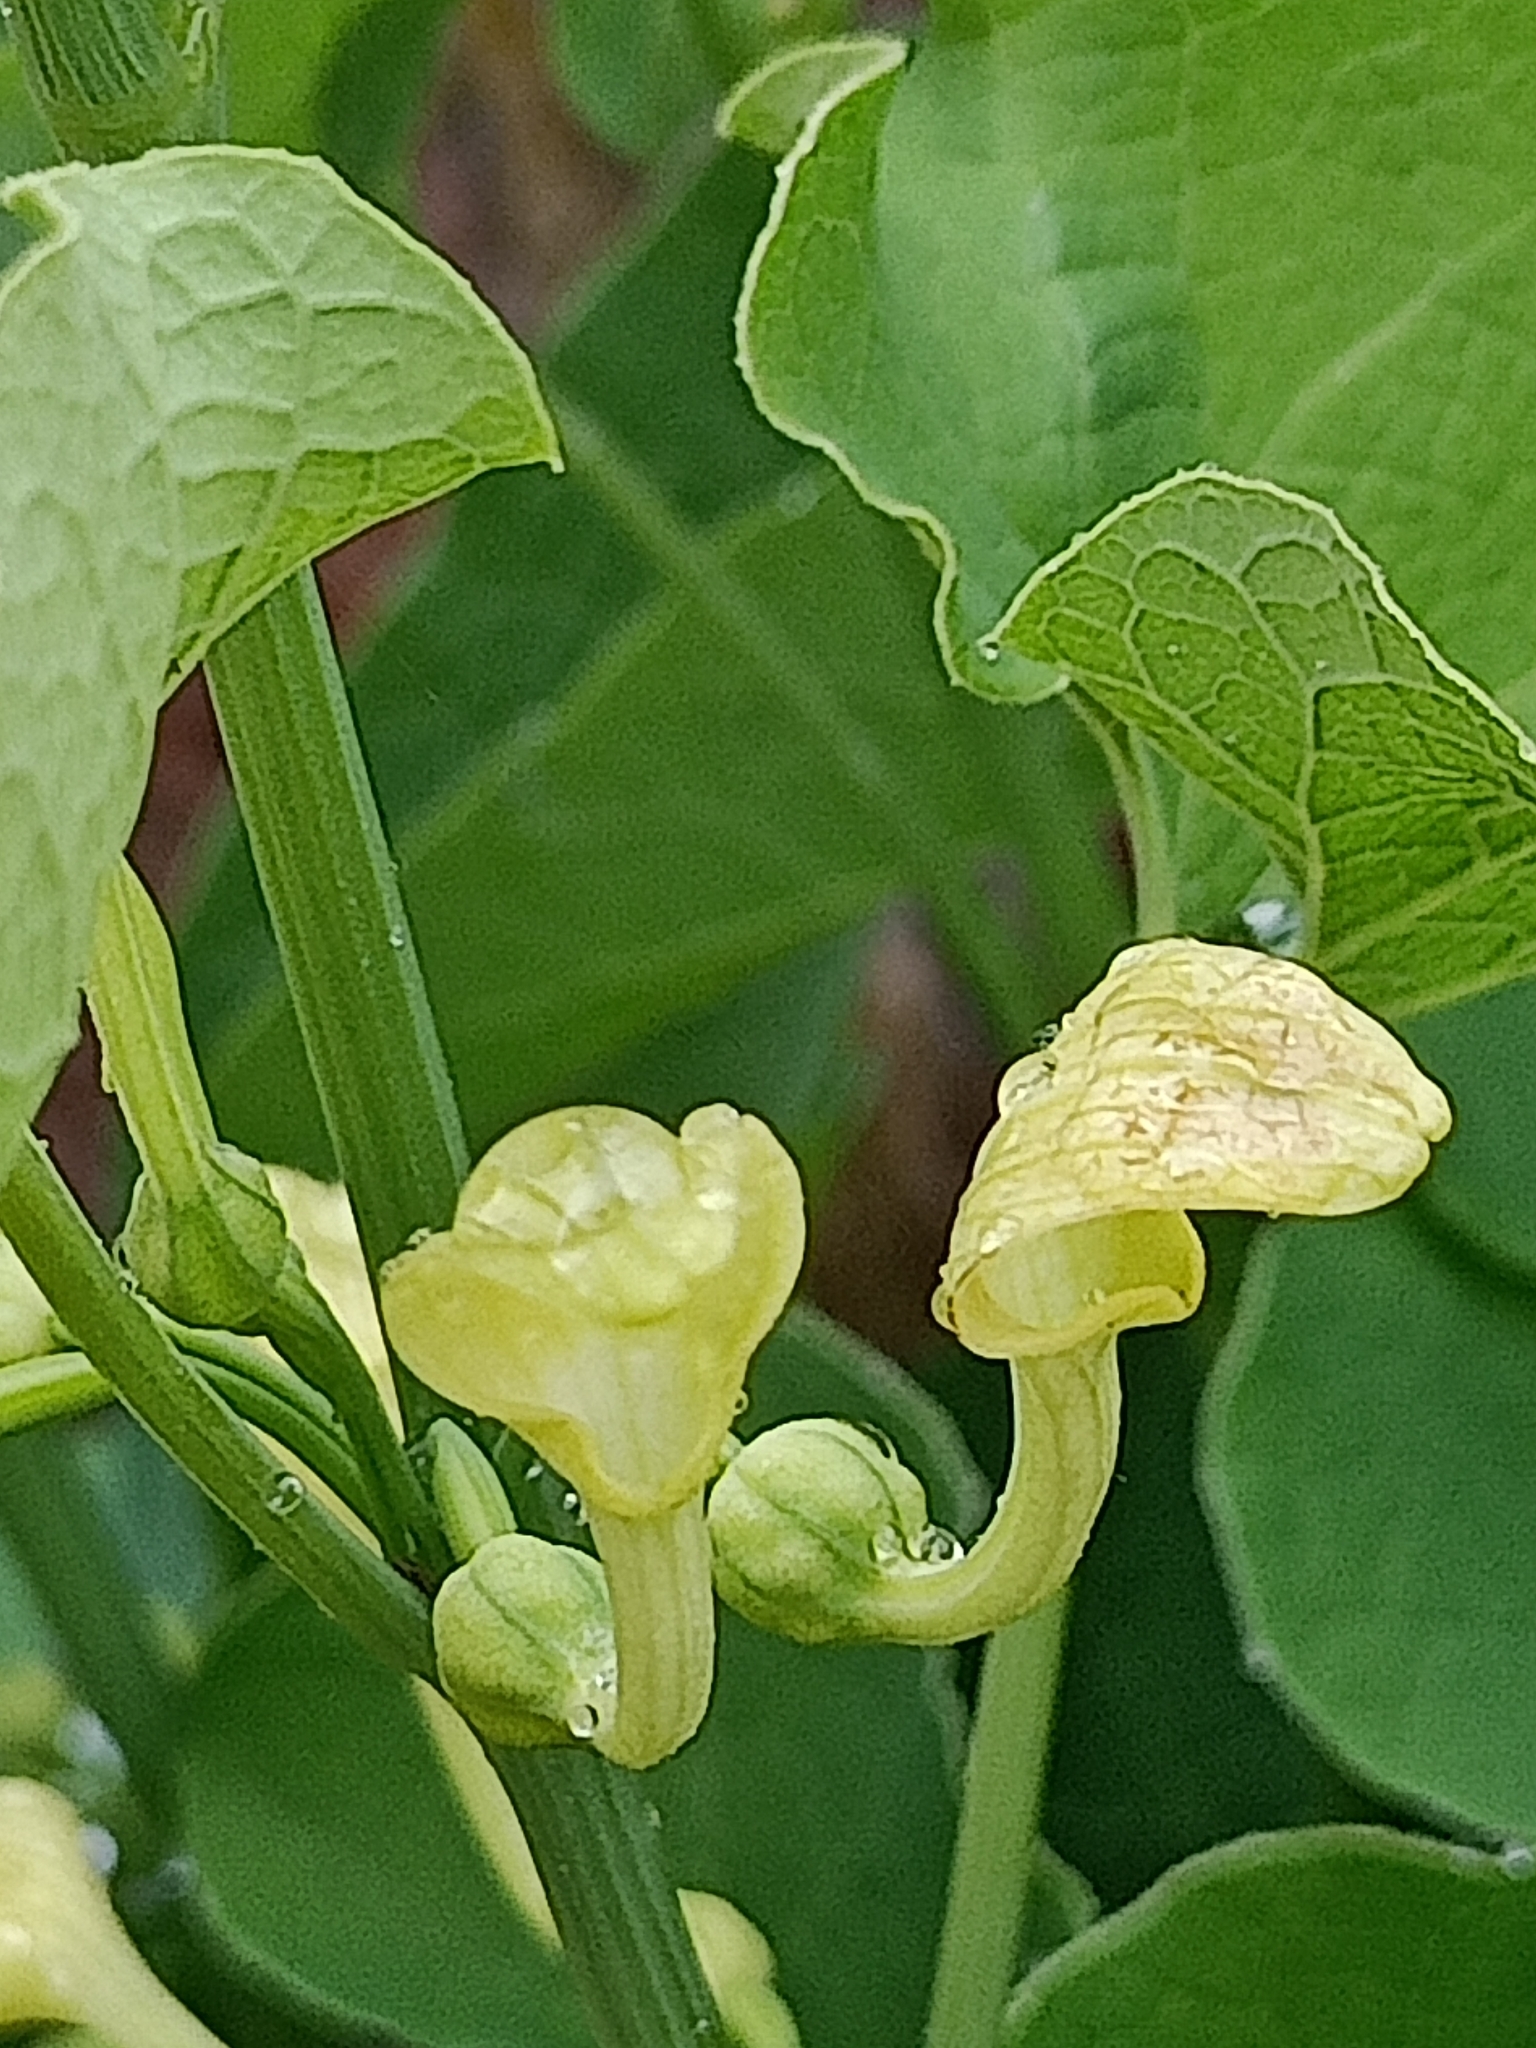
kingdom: Plantae
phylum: Tracheophyta
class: Magnoliopsida
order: Piperales
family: Aristolochiaceae
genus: Aristolochia
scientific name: Aristolochia clematitis
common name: Birthwort
